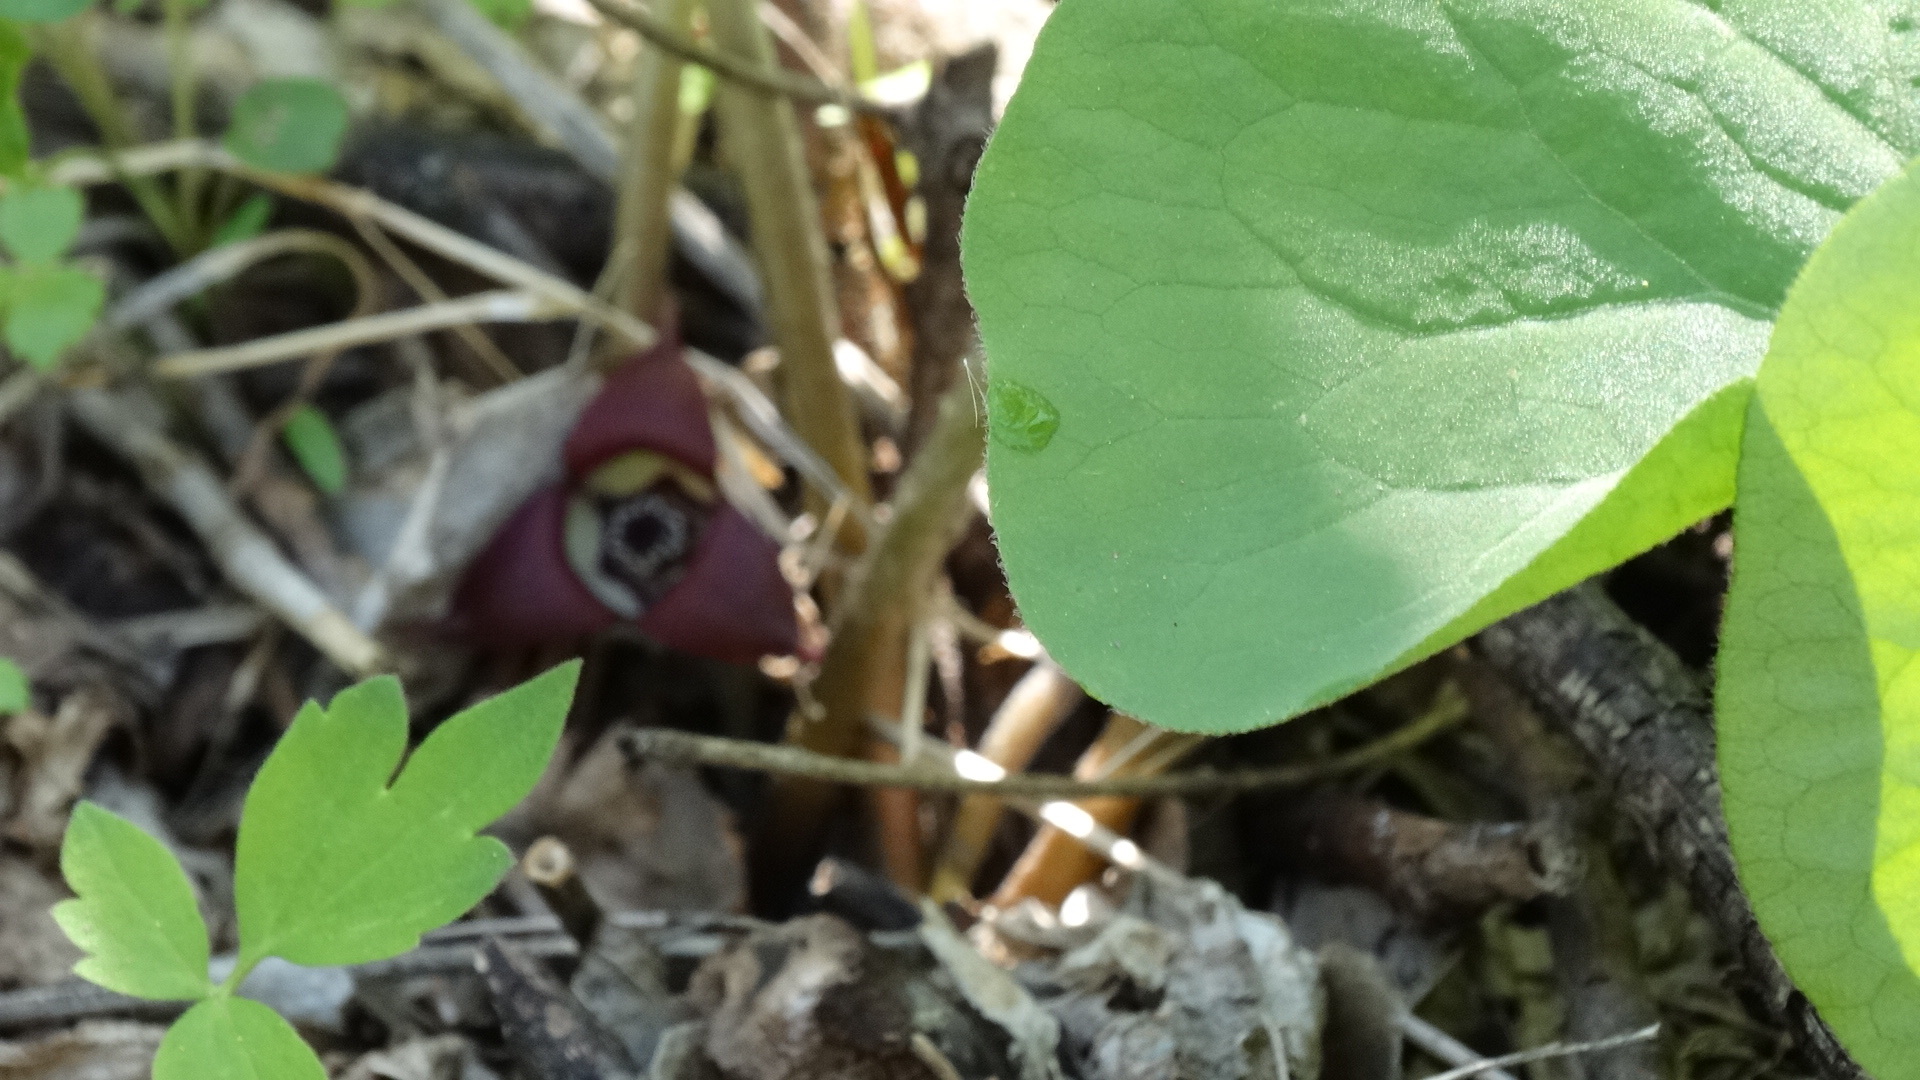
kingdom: Plantae
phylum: Tracheophyta
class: Magnoliopsida
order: Piperales
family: Aristolochiaceae
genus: Asarum
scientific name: Asarum canadense
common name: Wild ginger
